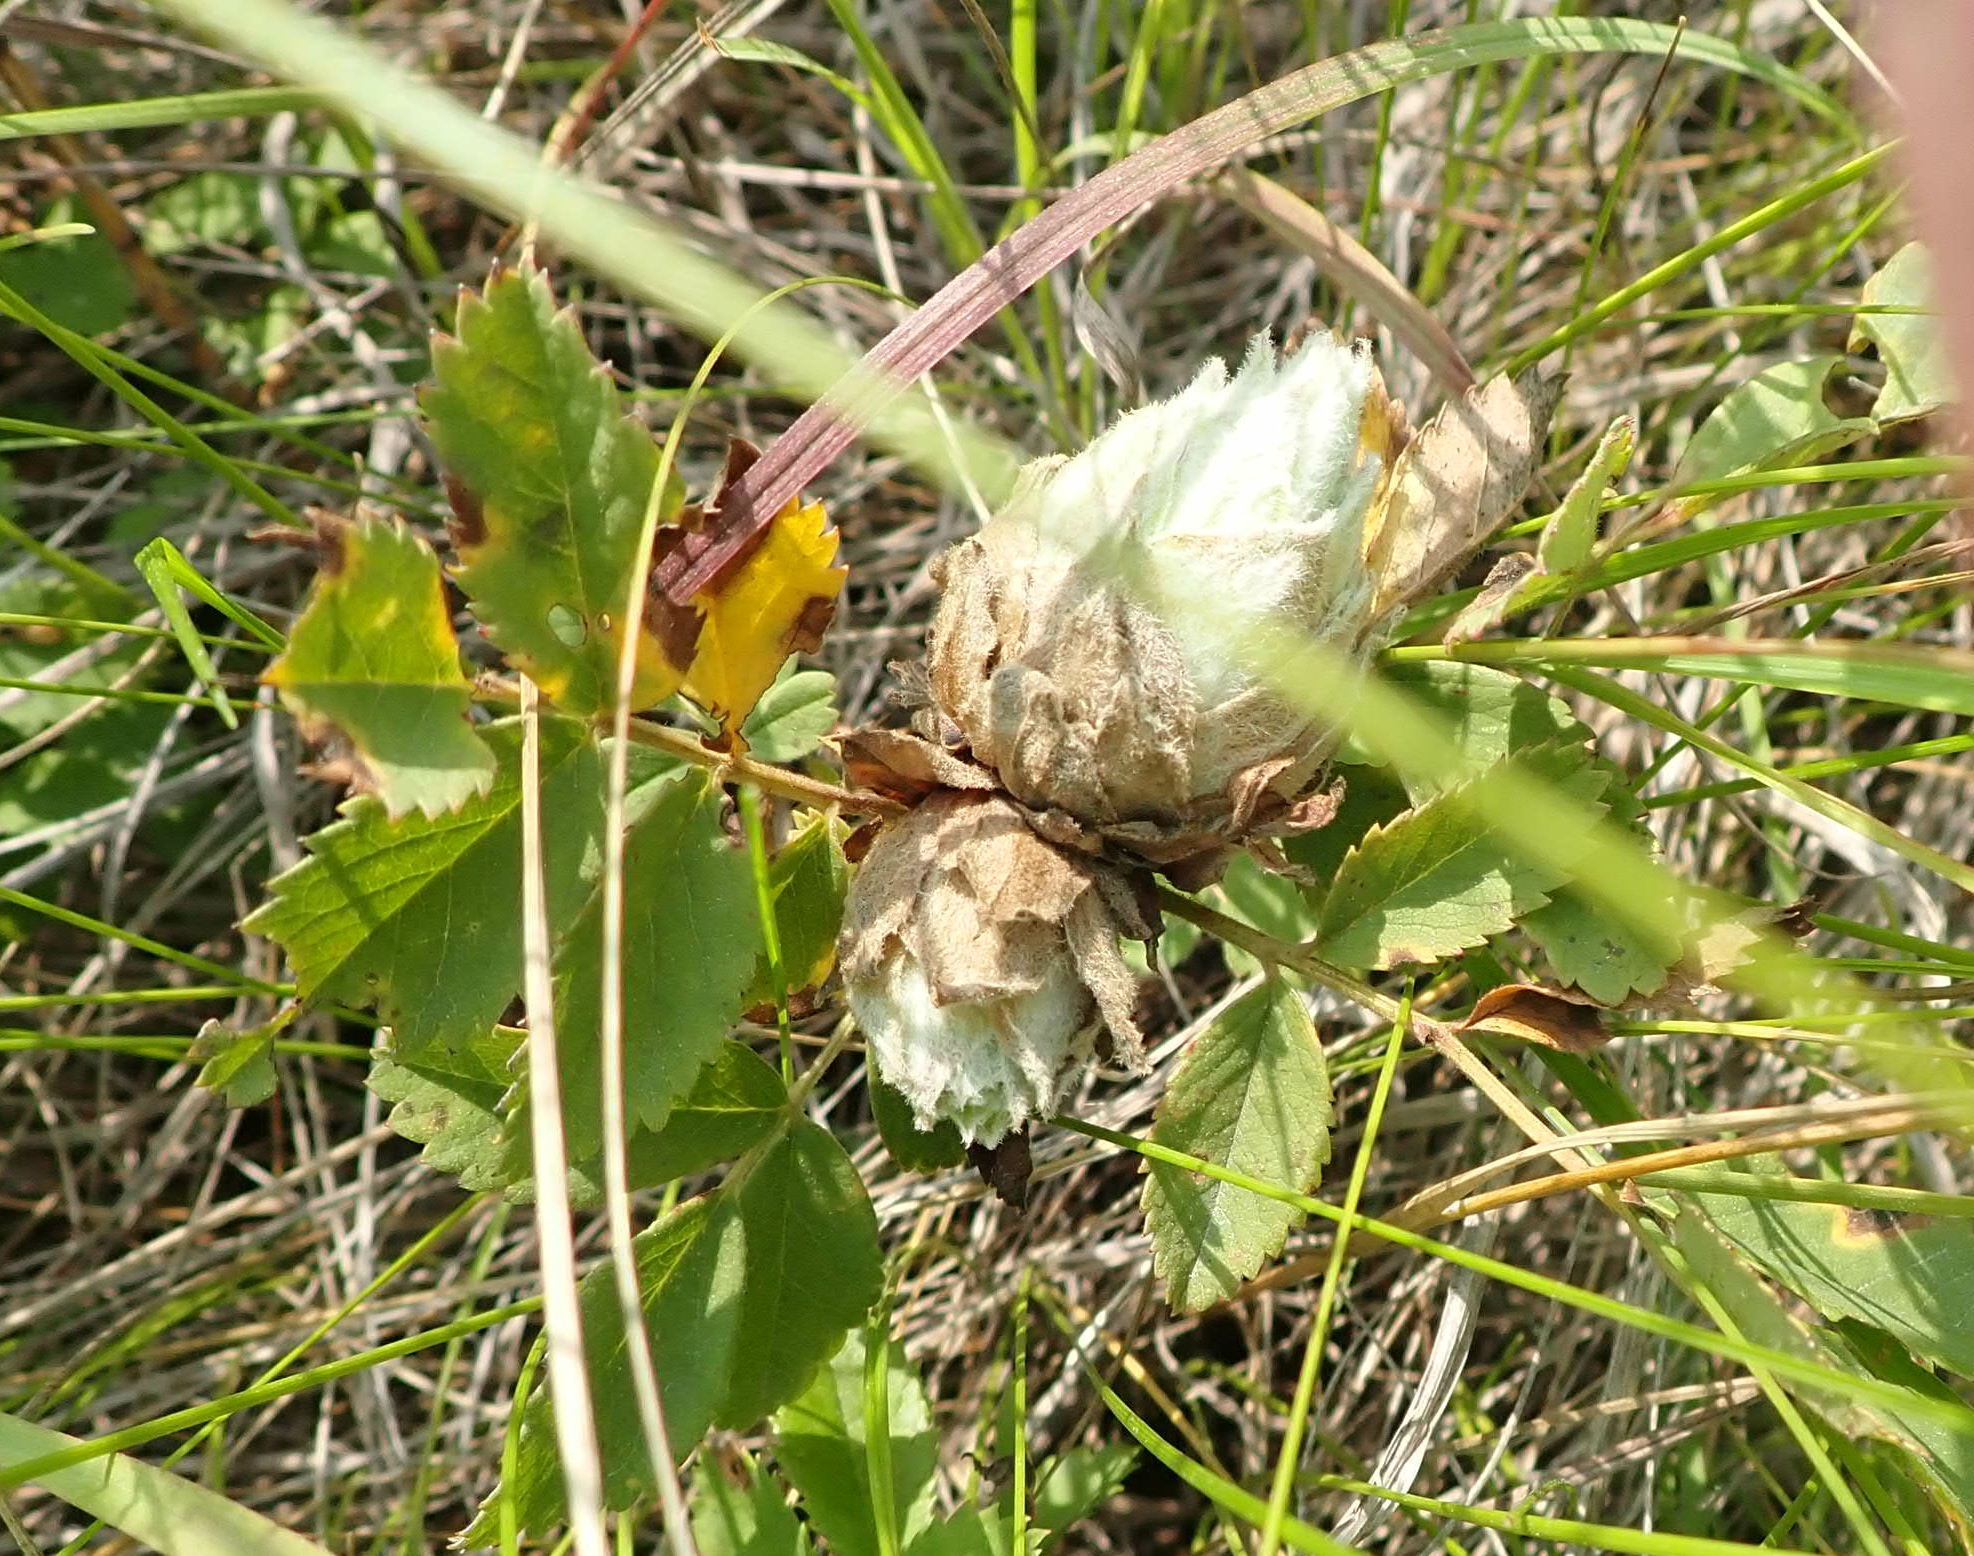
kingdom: Animalia
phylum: Arthropoda
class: Insecta
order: Diptera
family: Cecidomyiidae
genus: Rabdophaga
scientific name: Rabdophaga rosacea
